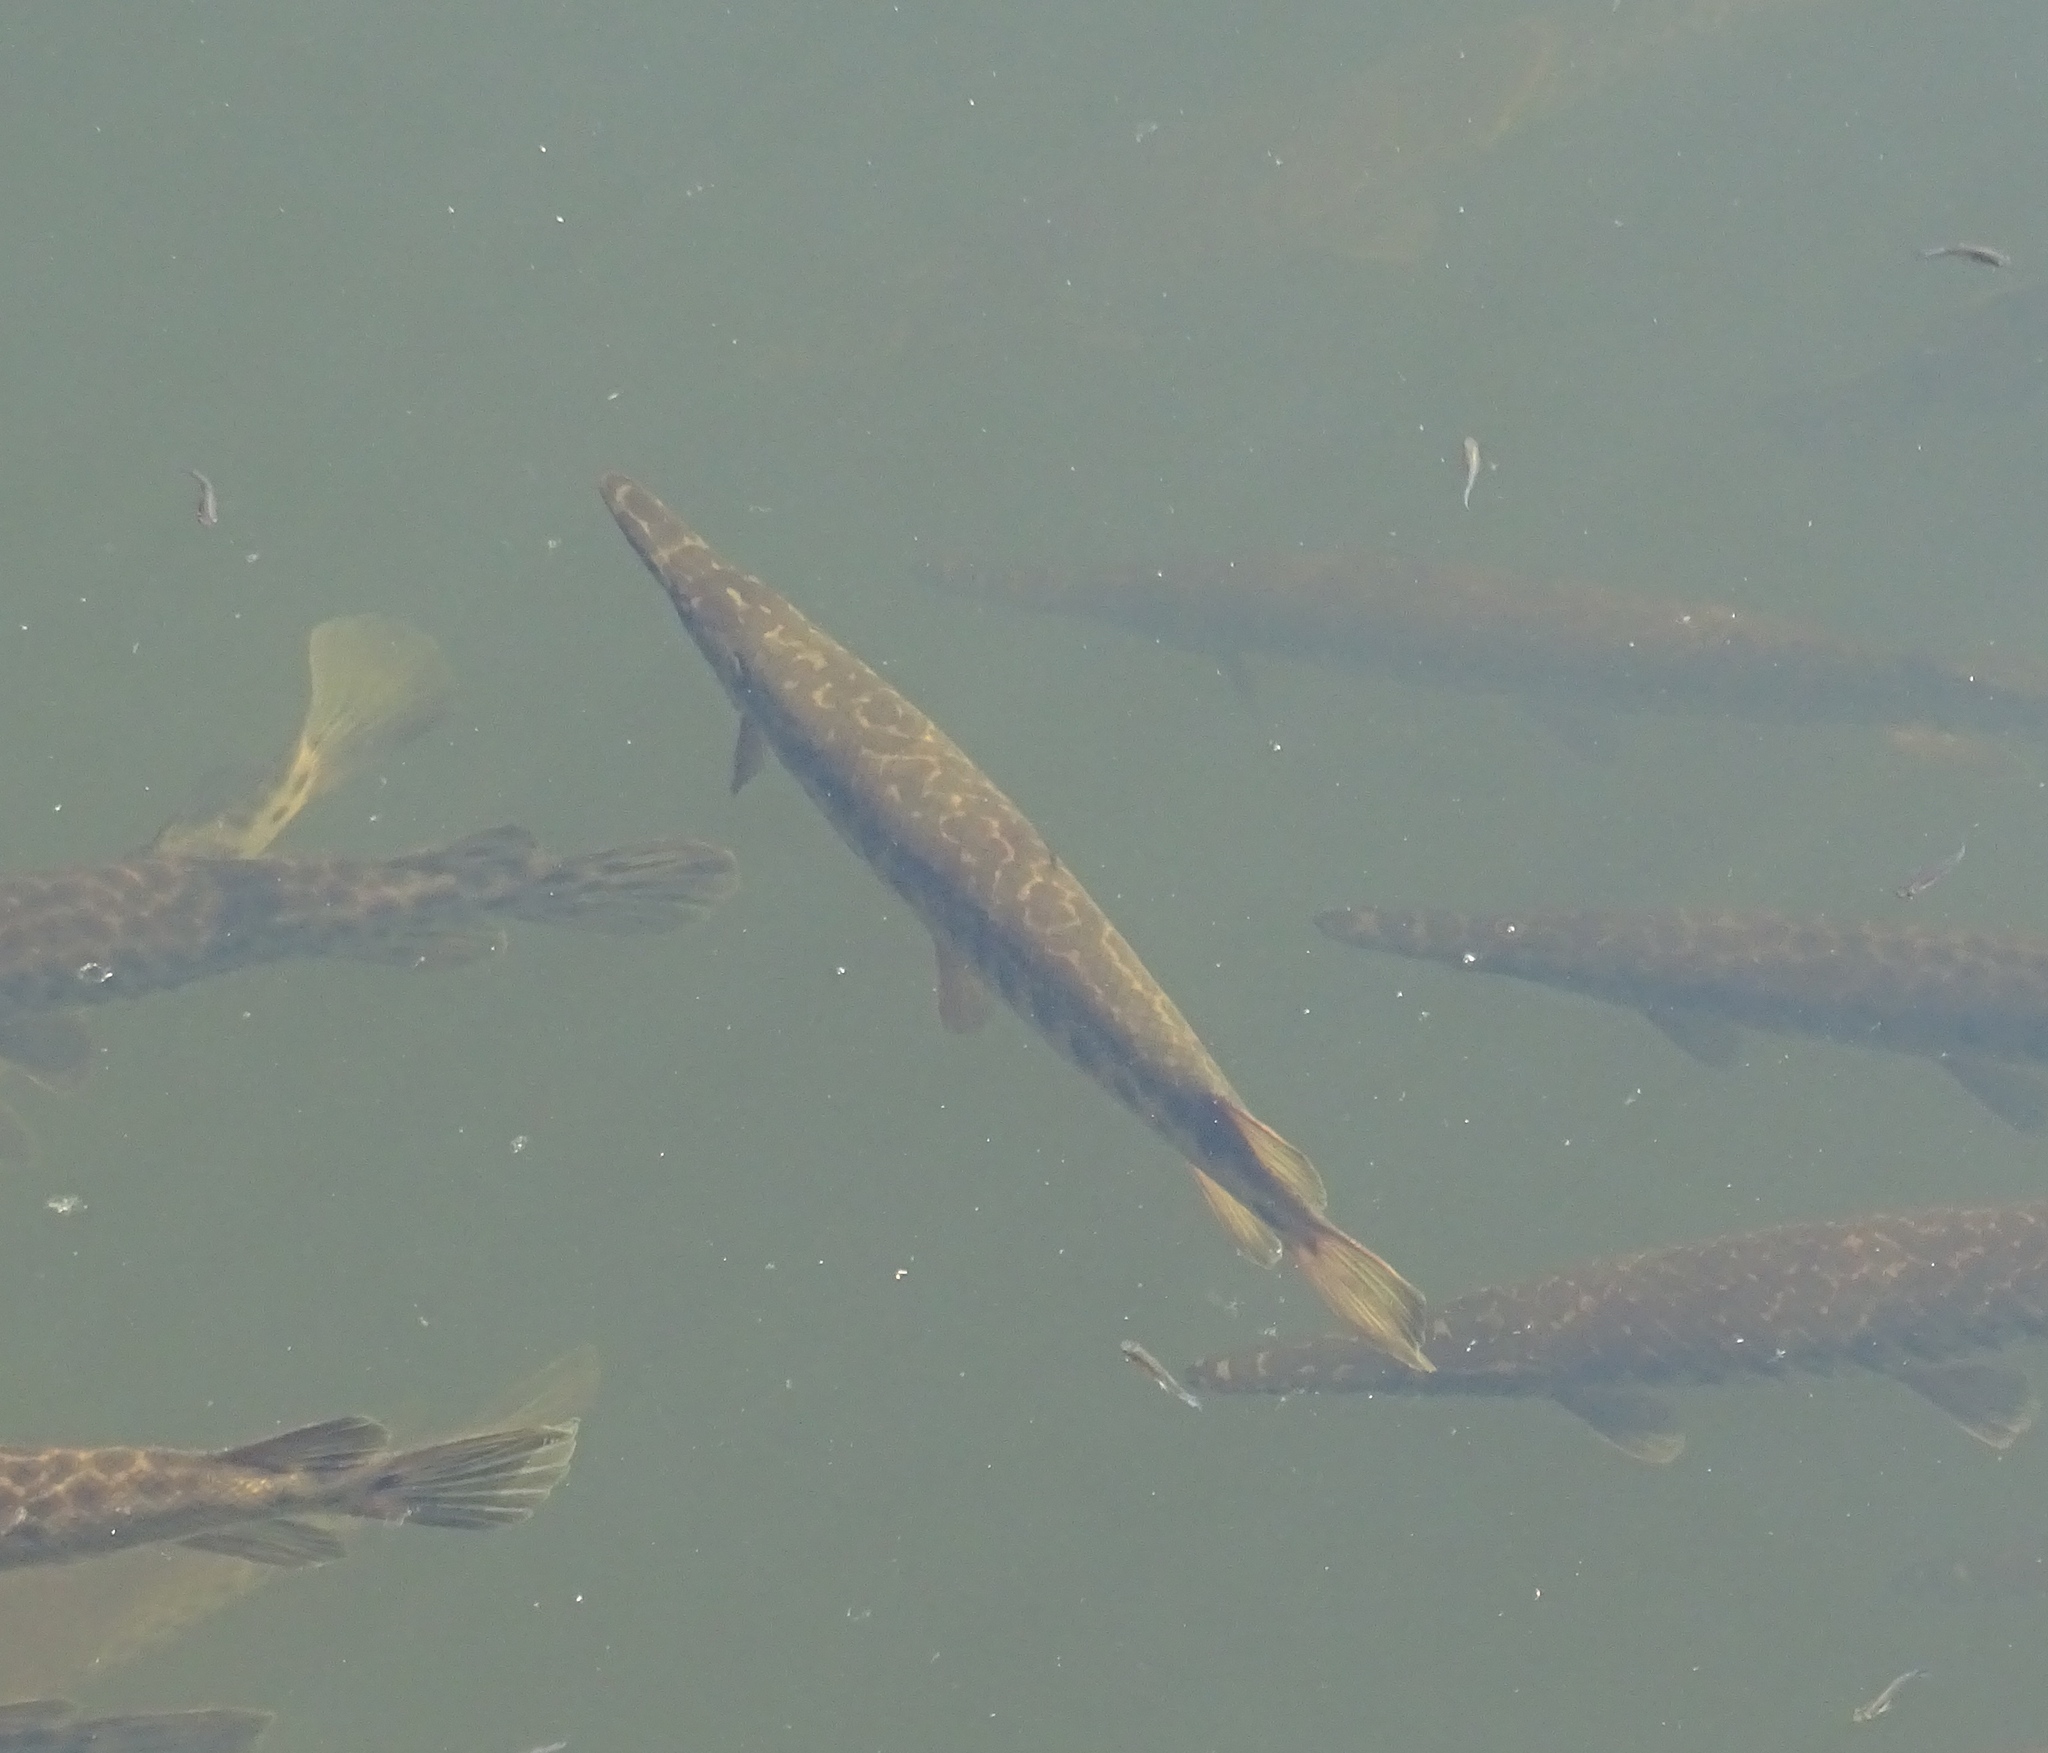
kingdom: Animalia
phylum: Chordata
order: Lepisosteiformes
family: Lepisosteidae
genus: Lepisosteus
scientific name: Lepisosteus platyrhincus
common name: Florida gar
